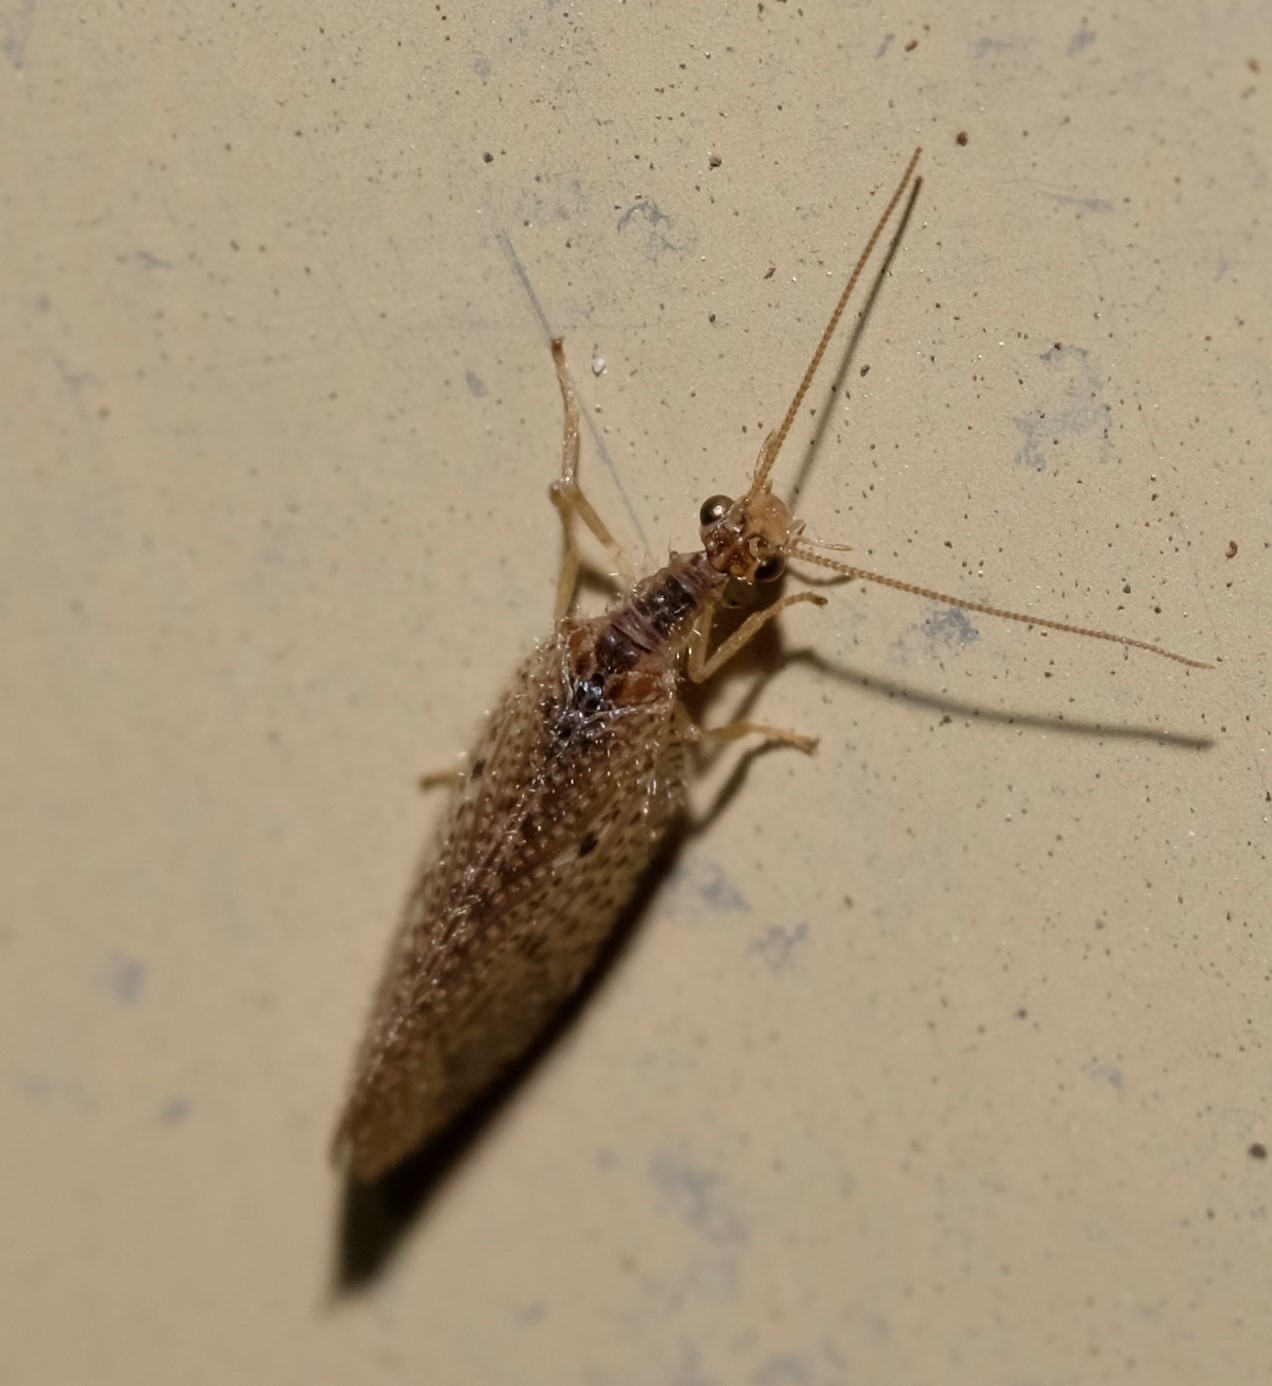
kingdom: Animalia
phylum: Arthropoda
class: Insecta
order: Neuroptera
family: Hemerobiidae
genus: Micromus
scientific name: Micromus tasmaniae
